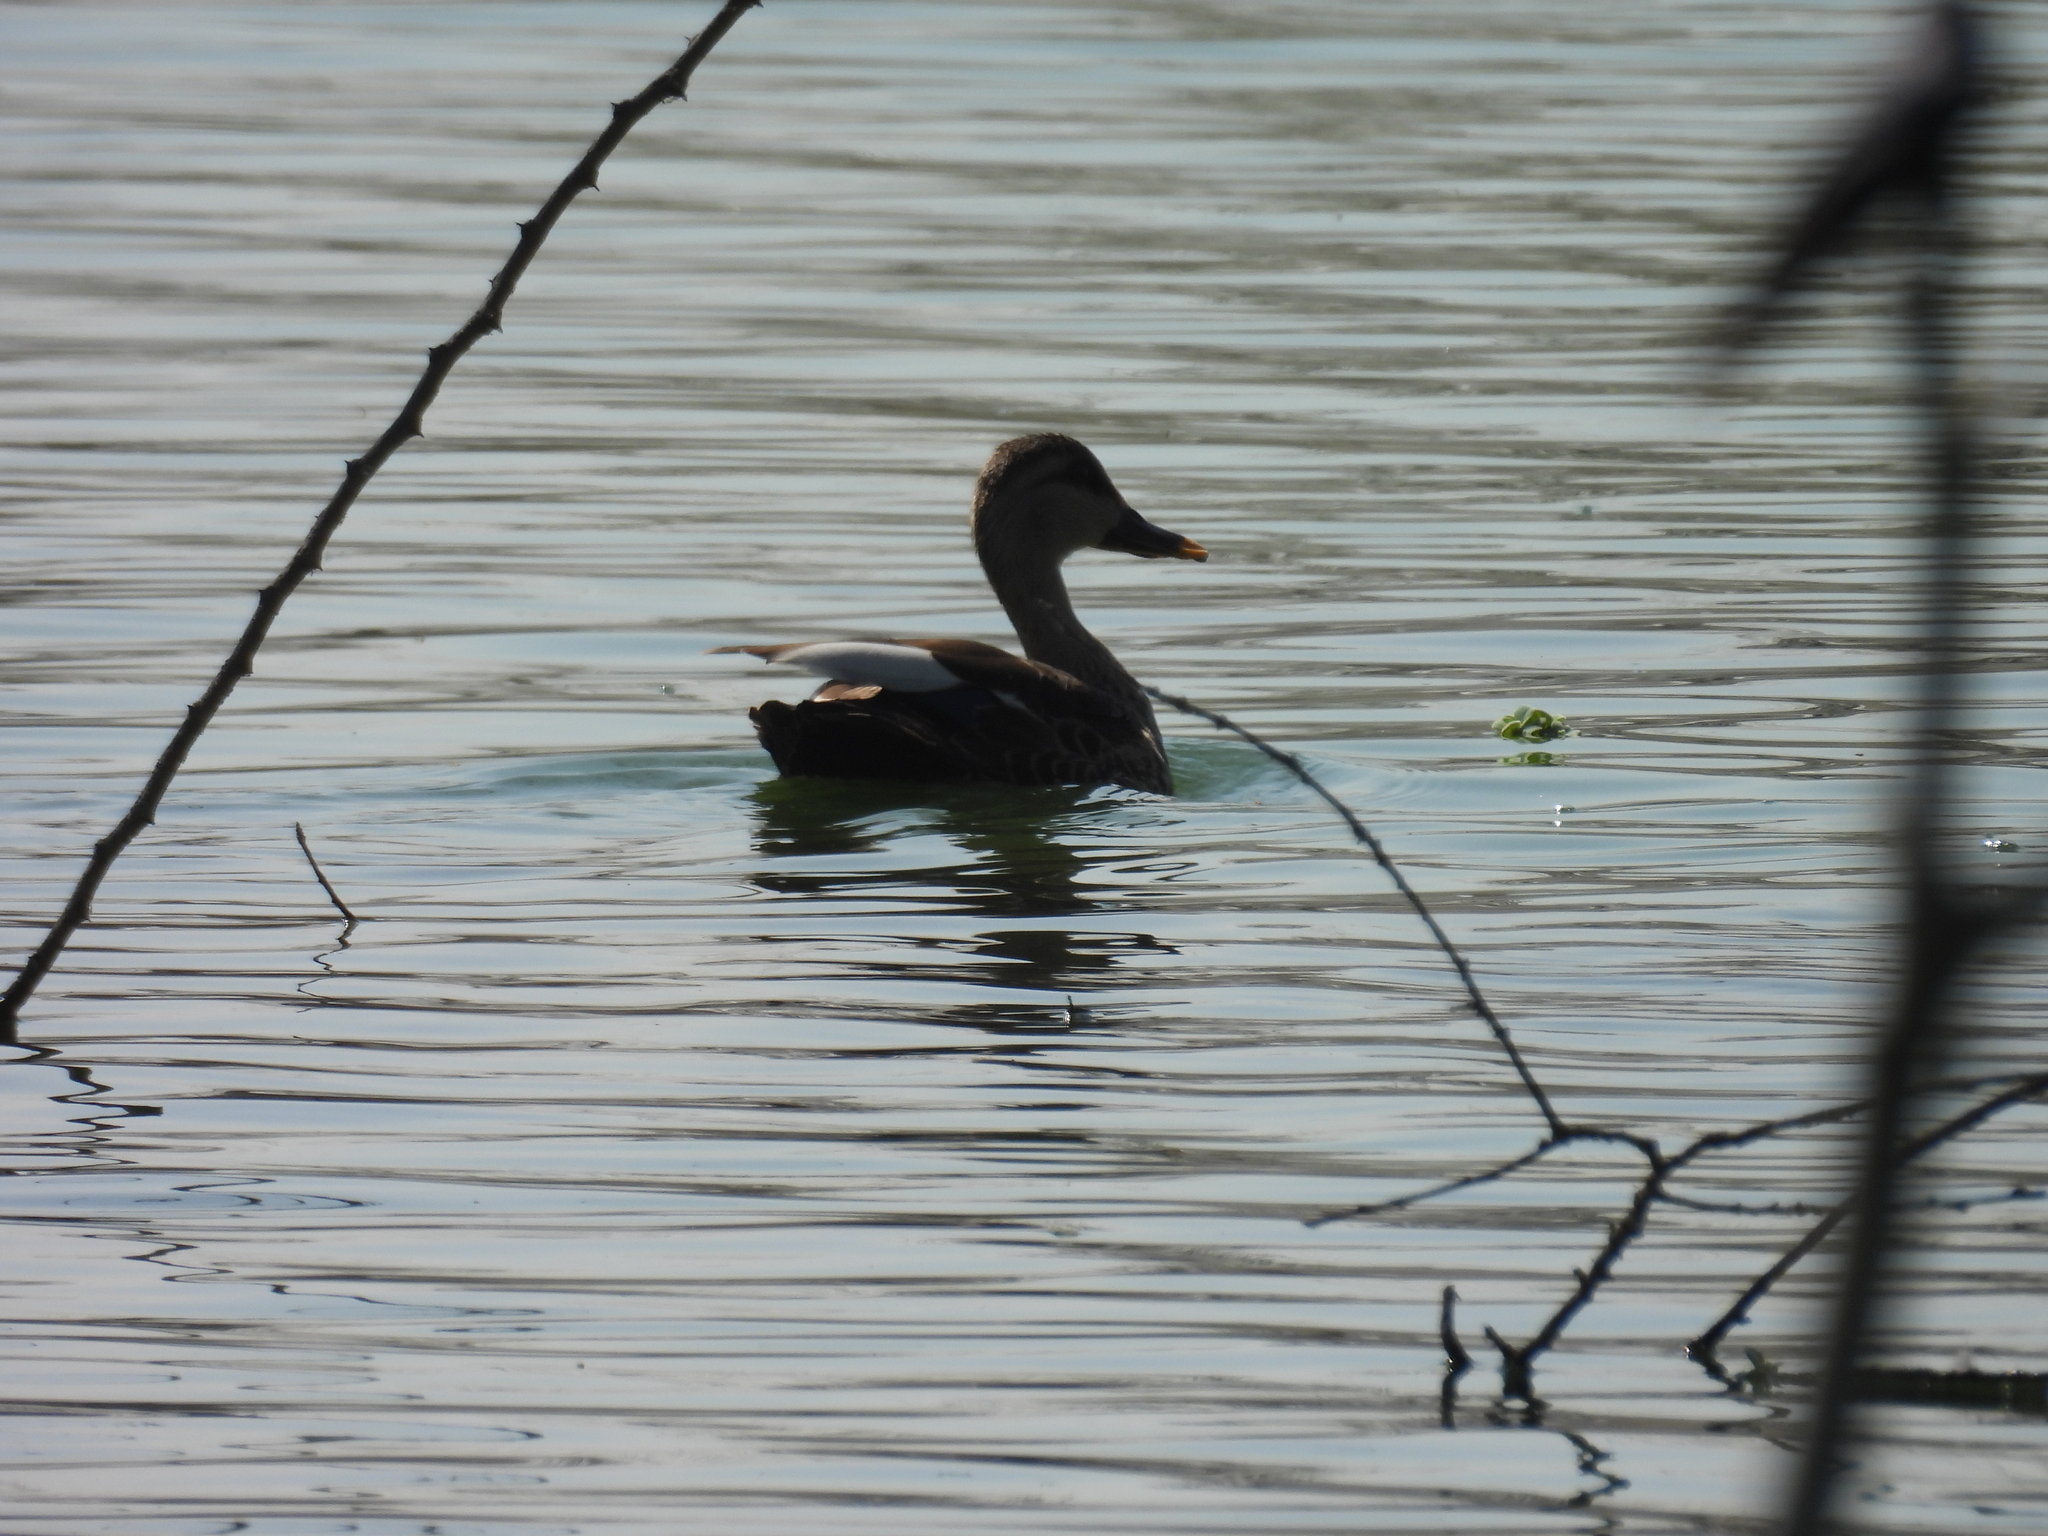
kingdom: Animalia
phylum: Chordata
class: Aves
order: Anseriformes
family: Anatidae
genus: Anas
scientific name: Anas poecilorhyncha
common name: Indian spot-billed duck
